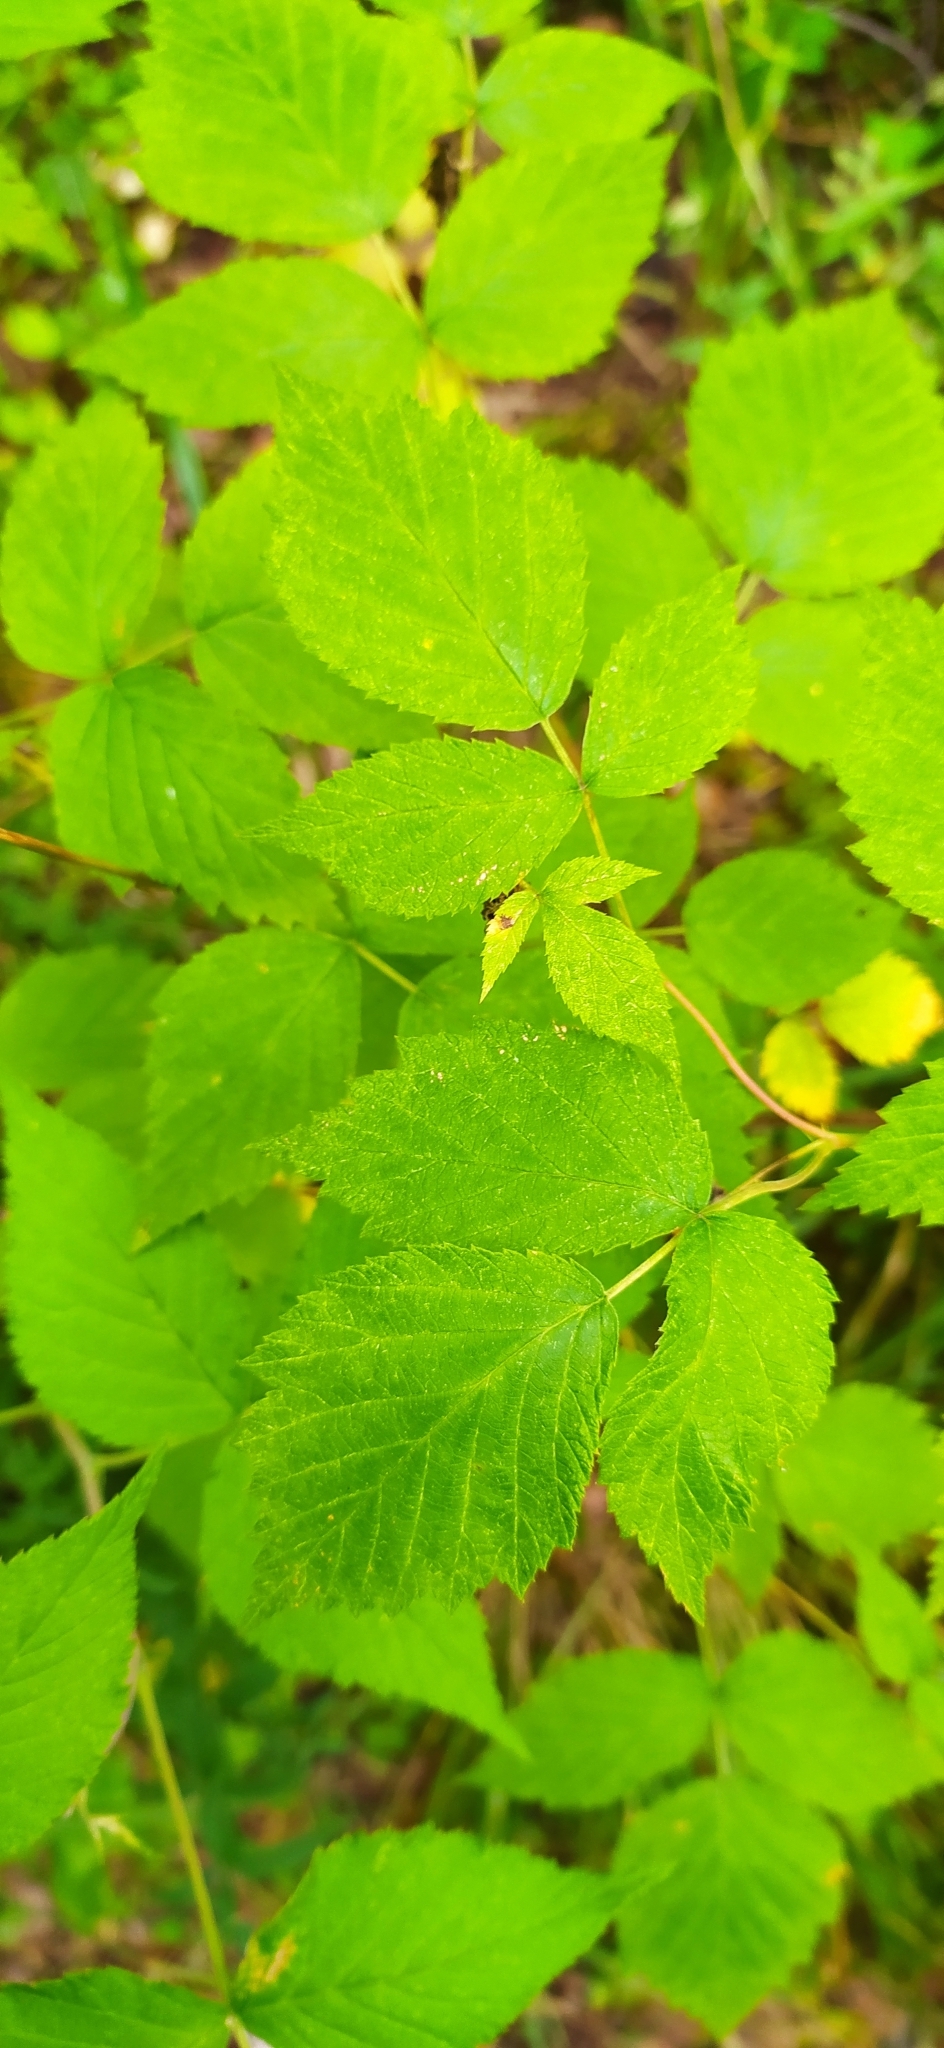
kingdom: Plantae
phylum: Tracheophyta
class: Magnoliopsida
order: Rosales
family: Rosaceae
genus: Rubus
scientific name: Rubus idaeus
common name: Raspberry
